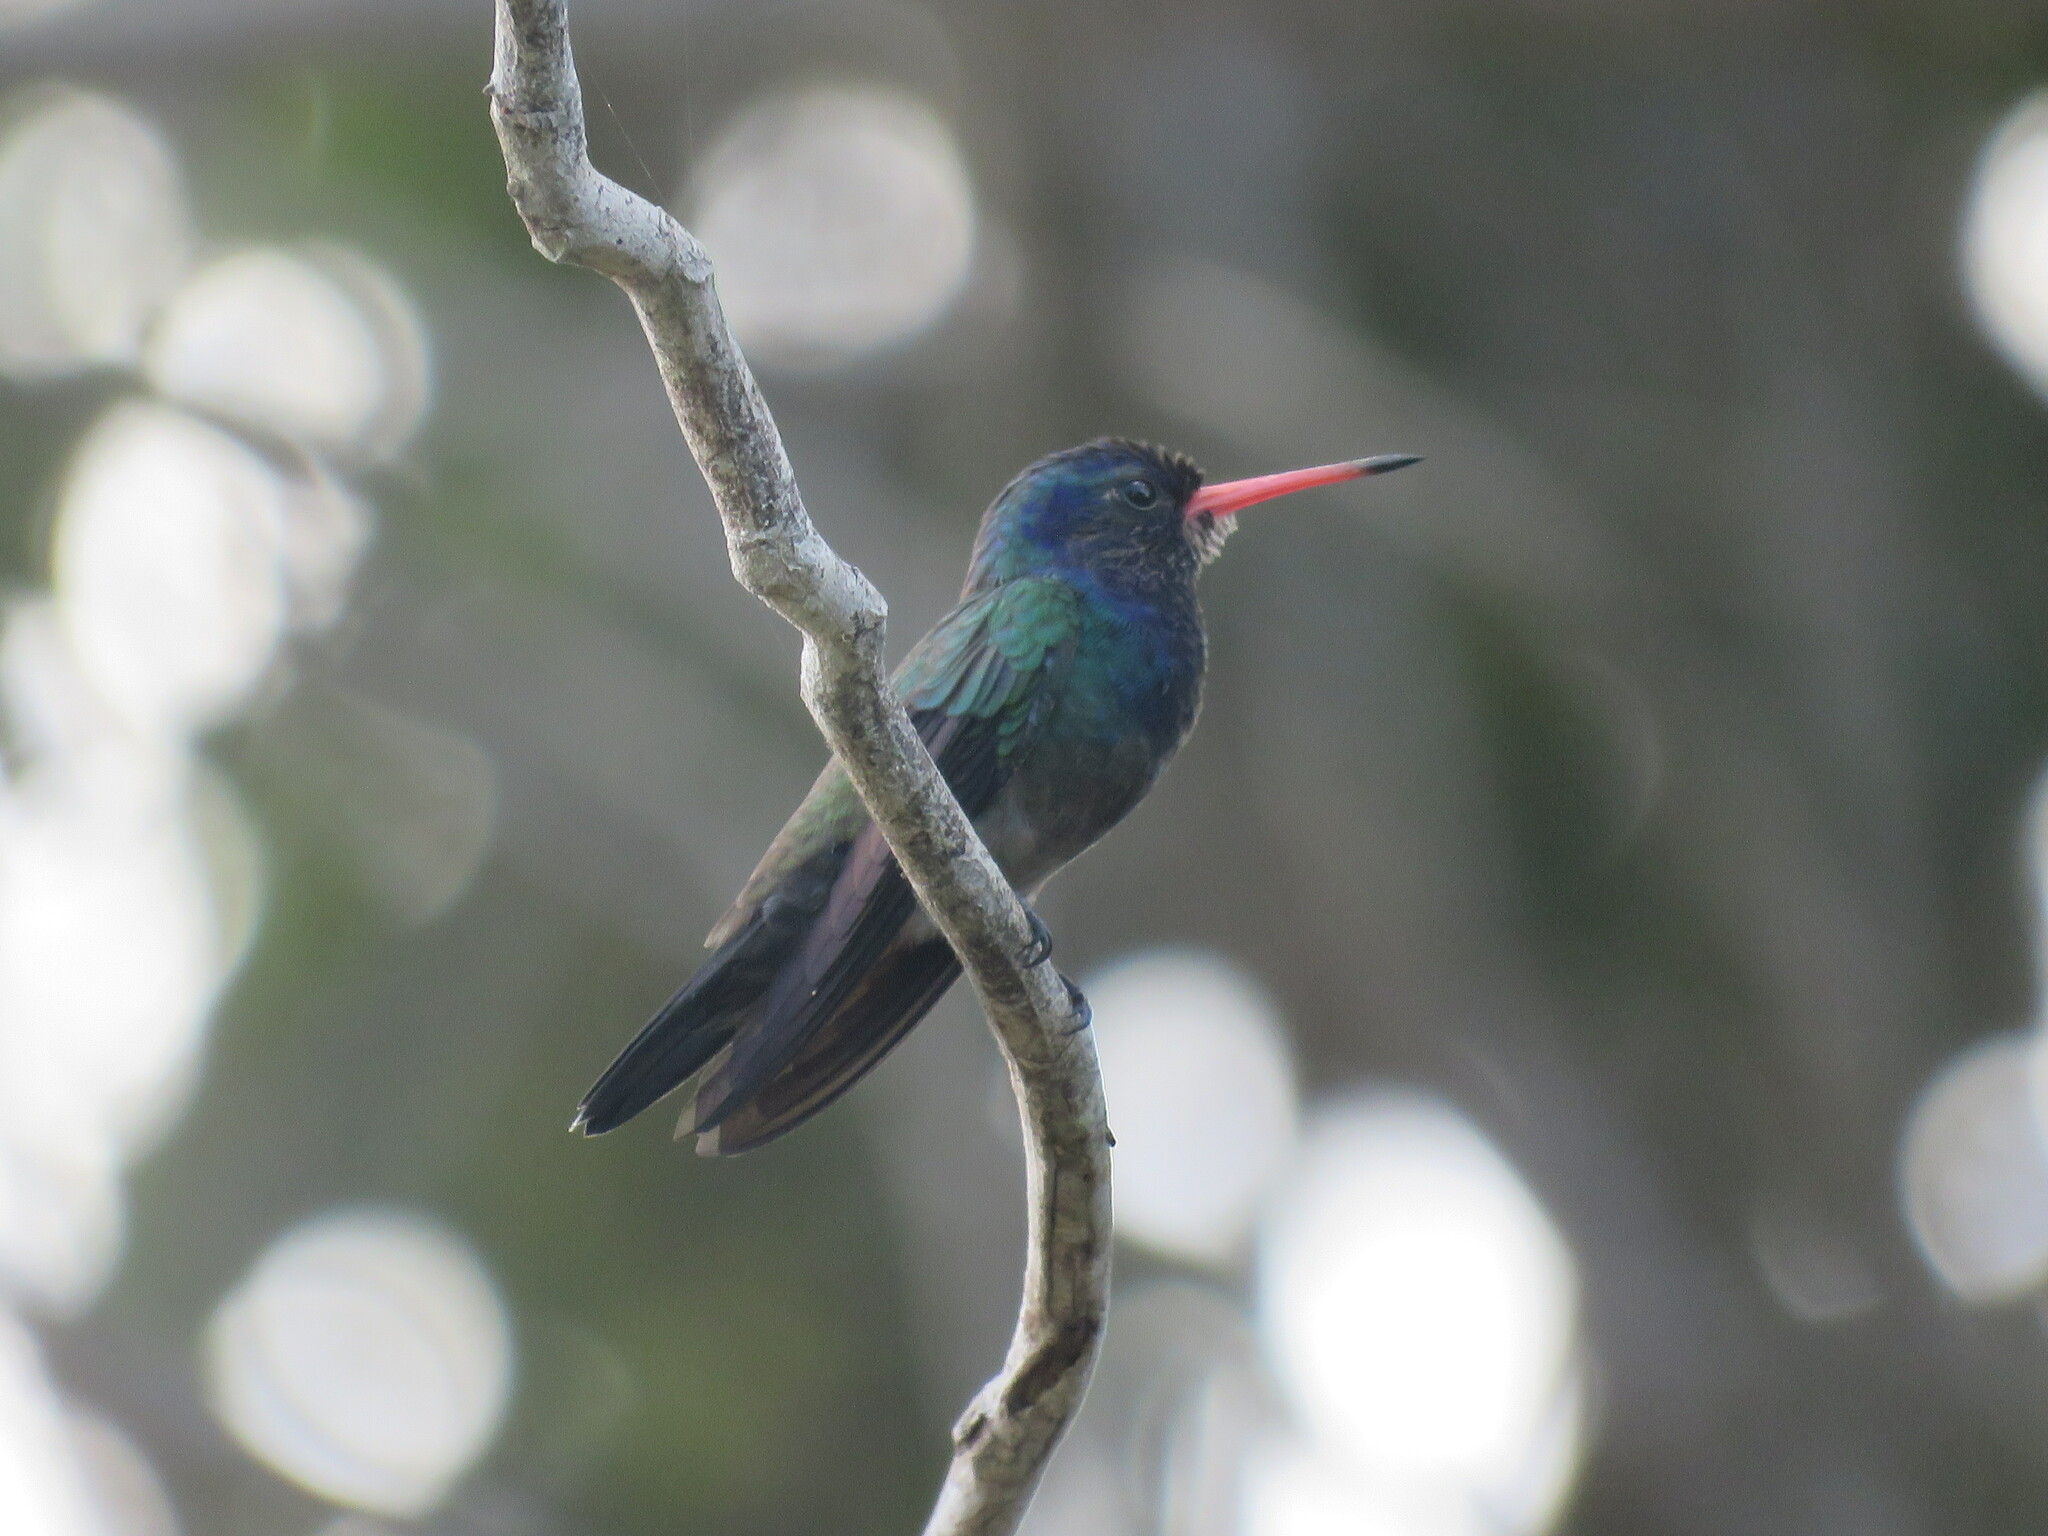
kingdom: Animalia
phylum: Chordata
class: Aves
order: Apodiformes
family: Trochilidae
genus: Chlorestes
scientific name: Chlorestes cyanus
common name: White-chinned sapphire
